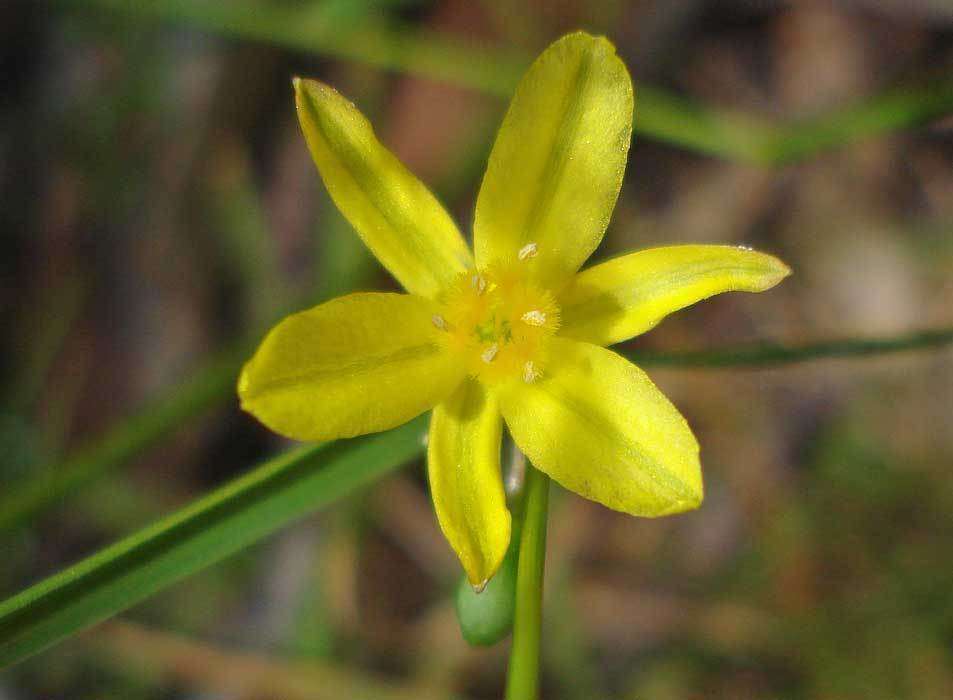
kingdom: Plantae
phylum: Tracheophyta
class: Liliopsida
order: Asparagales
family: Asphodelaceae
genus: Tricoryne
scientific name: Tricoryne elatior
